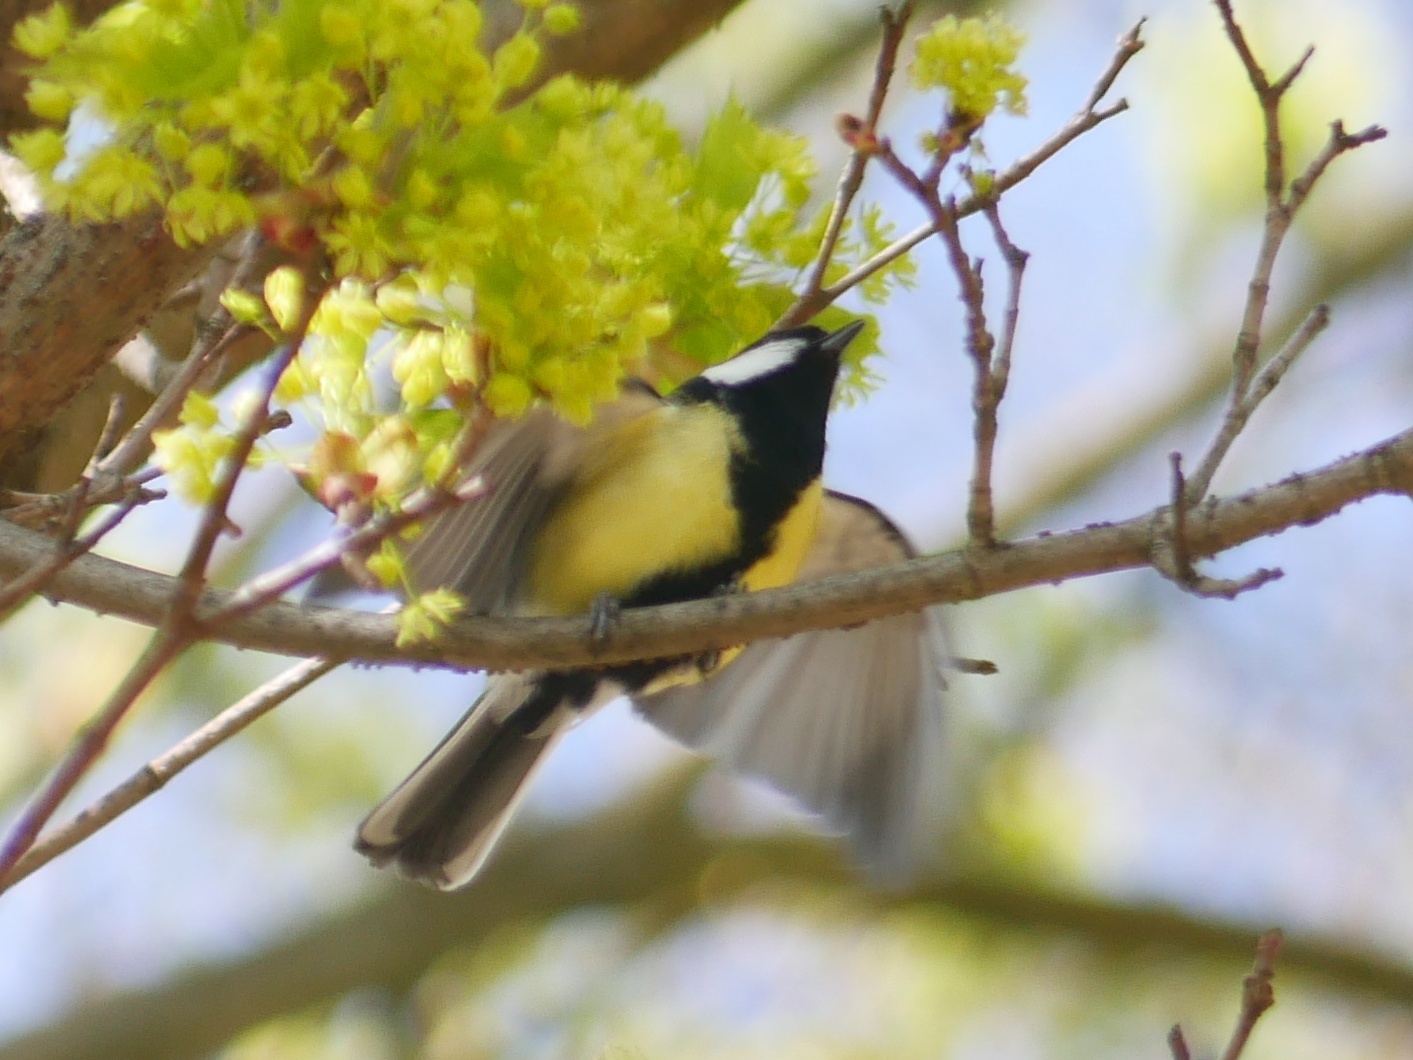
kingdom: Animalia
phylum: Chordata
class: Aves
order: Passeriformes
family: Paridae
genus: Parus
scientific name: Parus major
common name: Great tit
